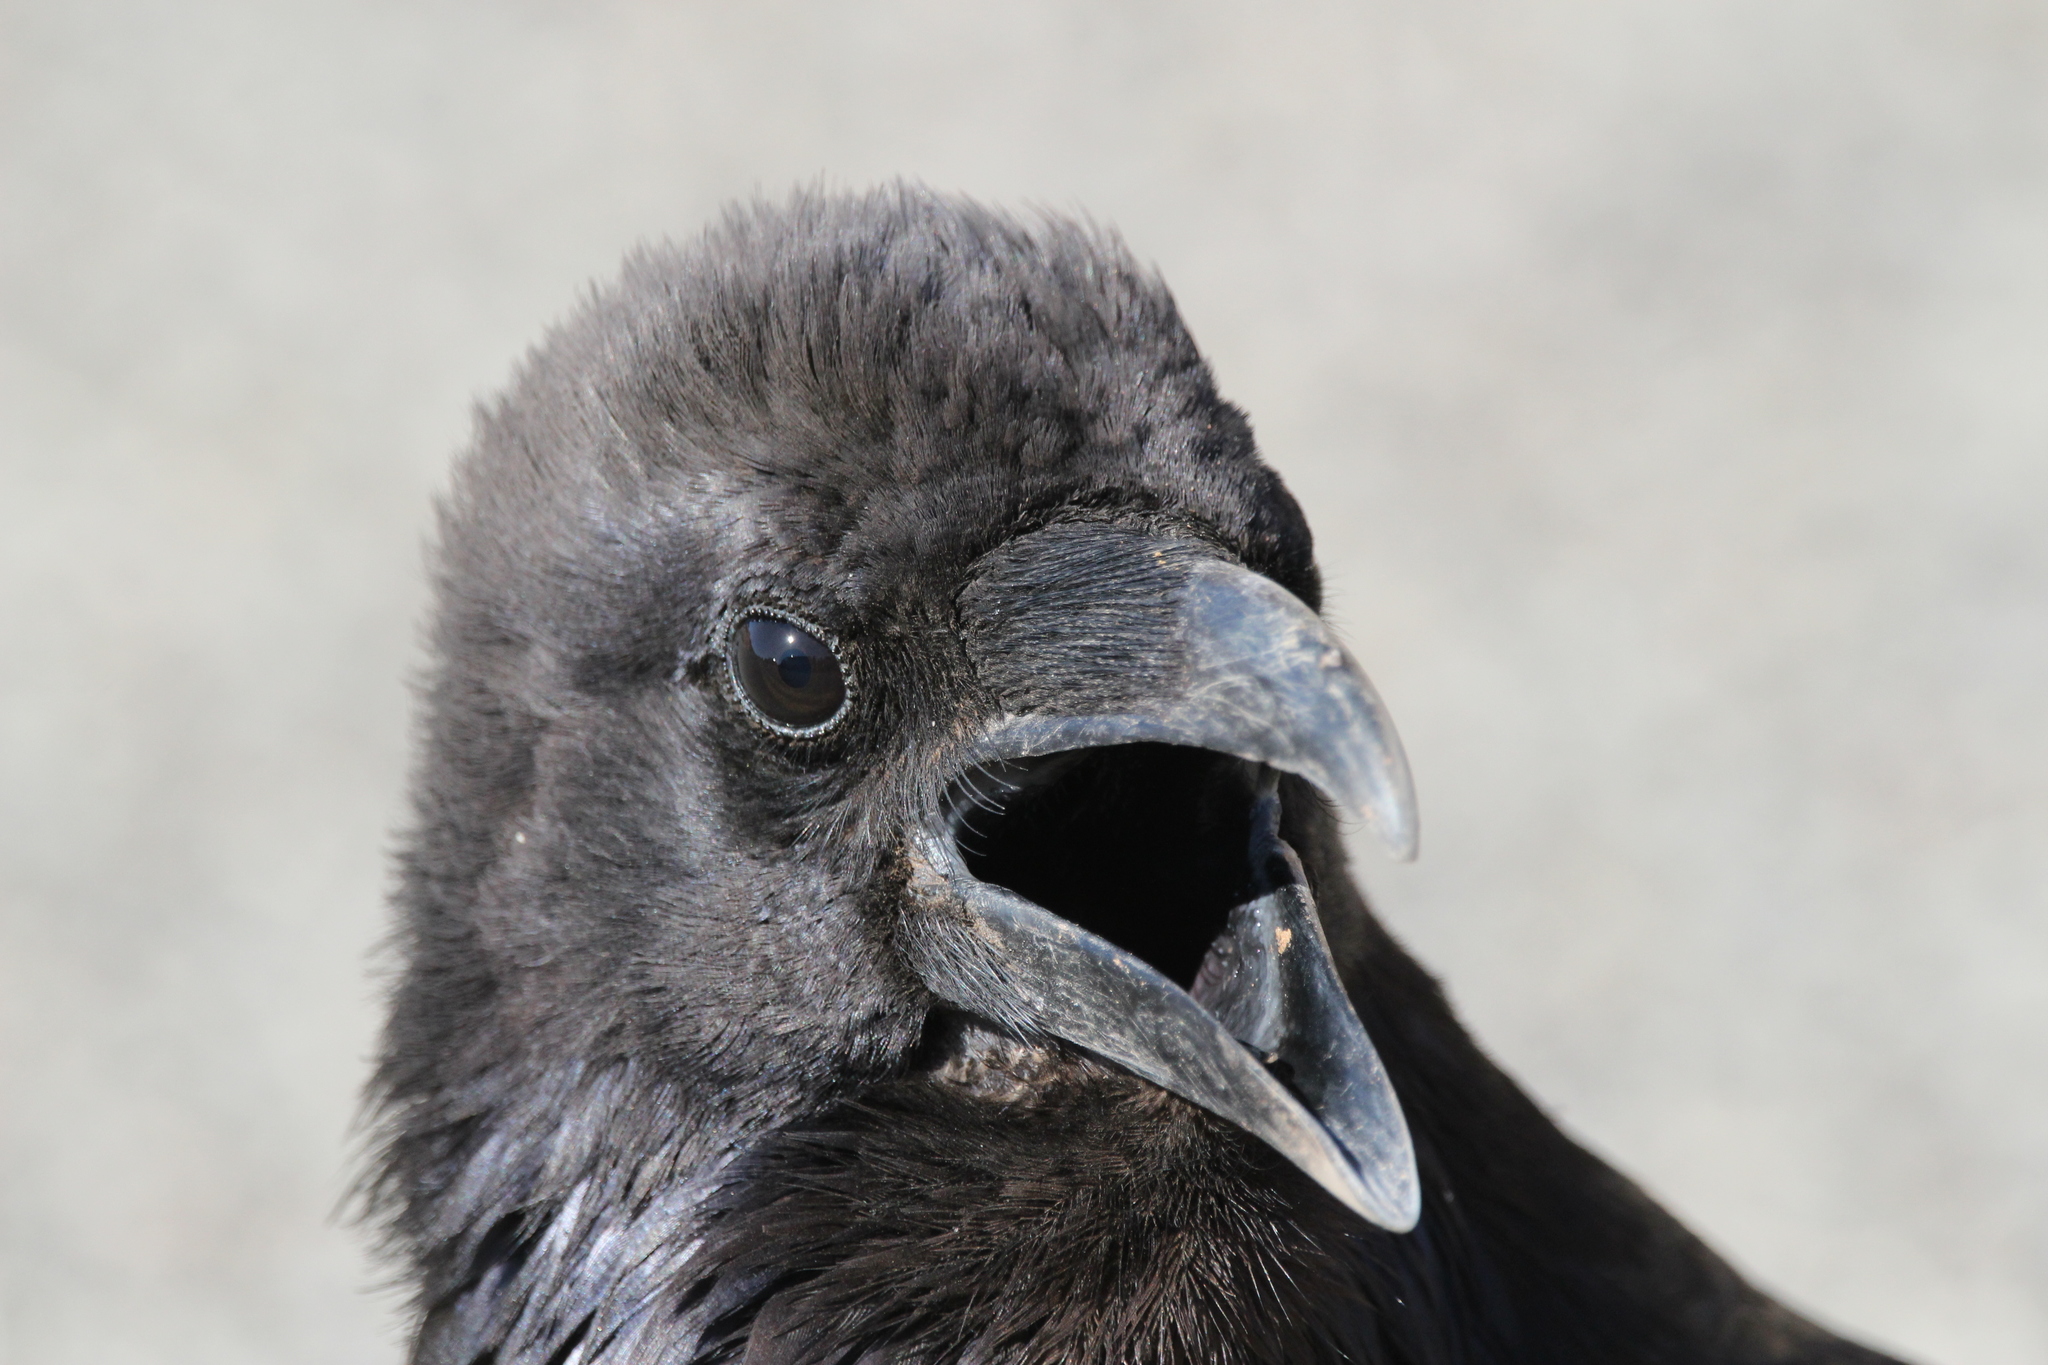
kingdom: Animalia
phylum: Chordata
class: Aves
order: Passeriformes
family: Corvidae
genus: Corvus
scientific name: Corvus corax
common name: Common raven
